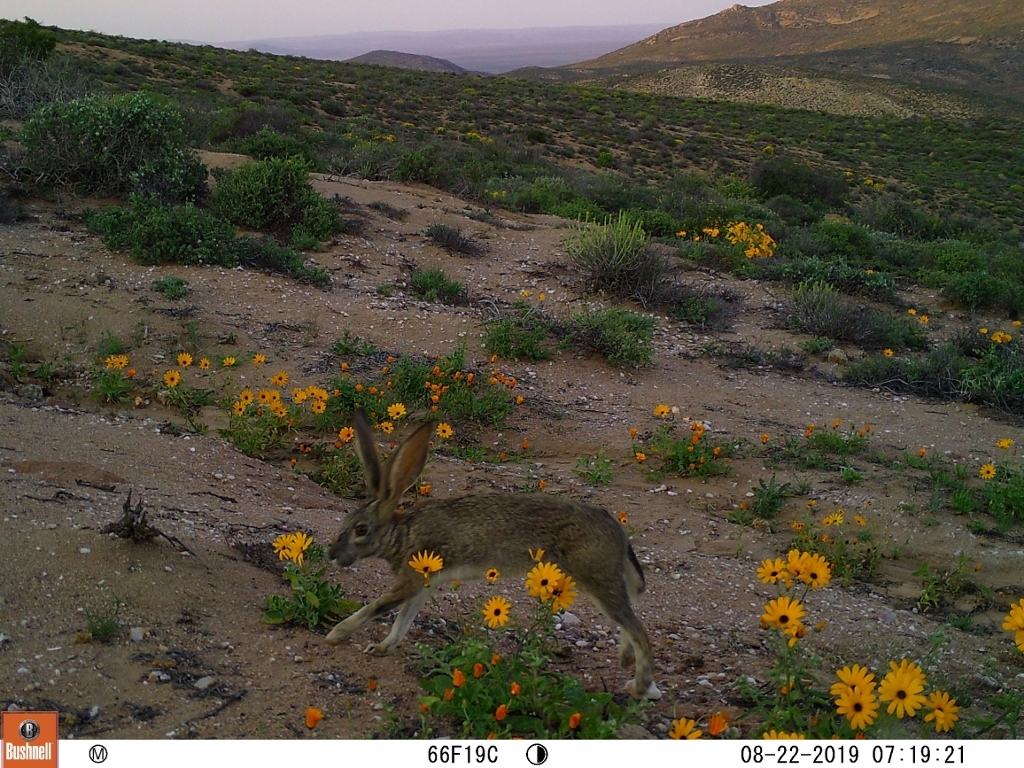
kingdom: Animalia
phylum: Chordata
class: Mammalia
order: Lagomorpha
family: Leporidae
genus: Lepus
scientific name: Lepus saxatilis
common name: Scrub hare
